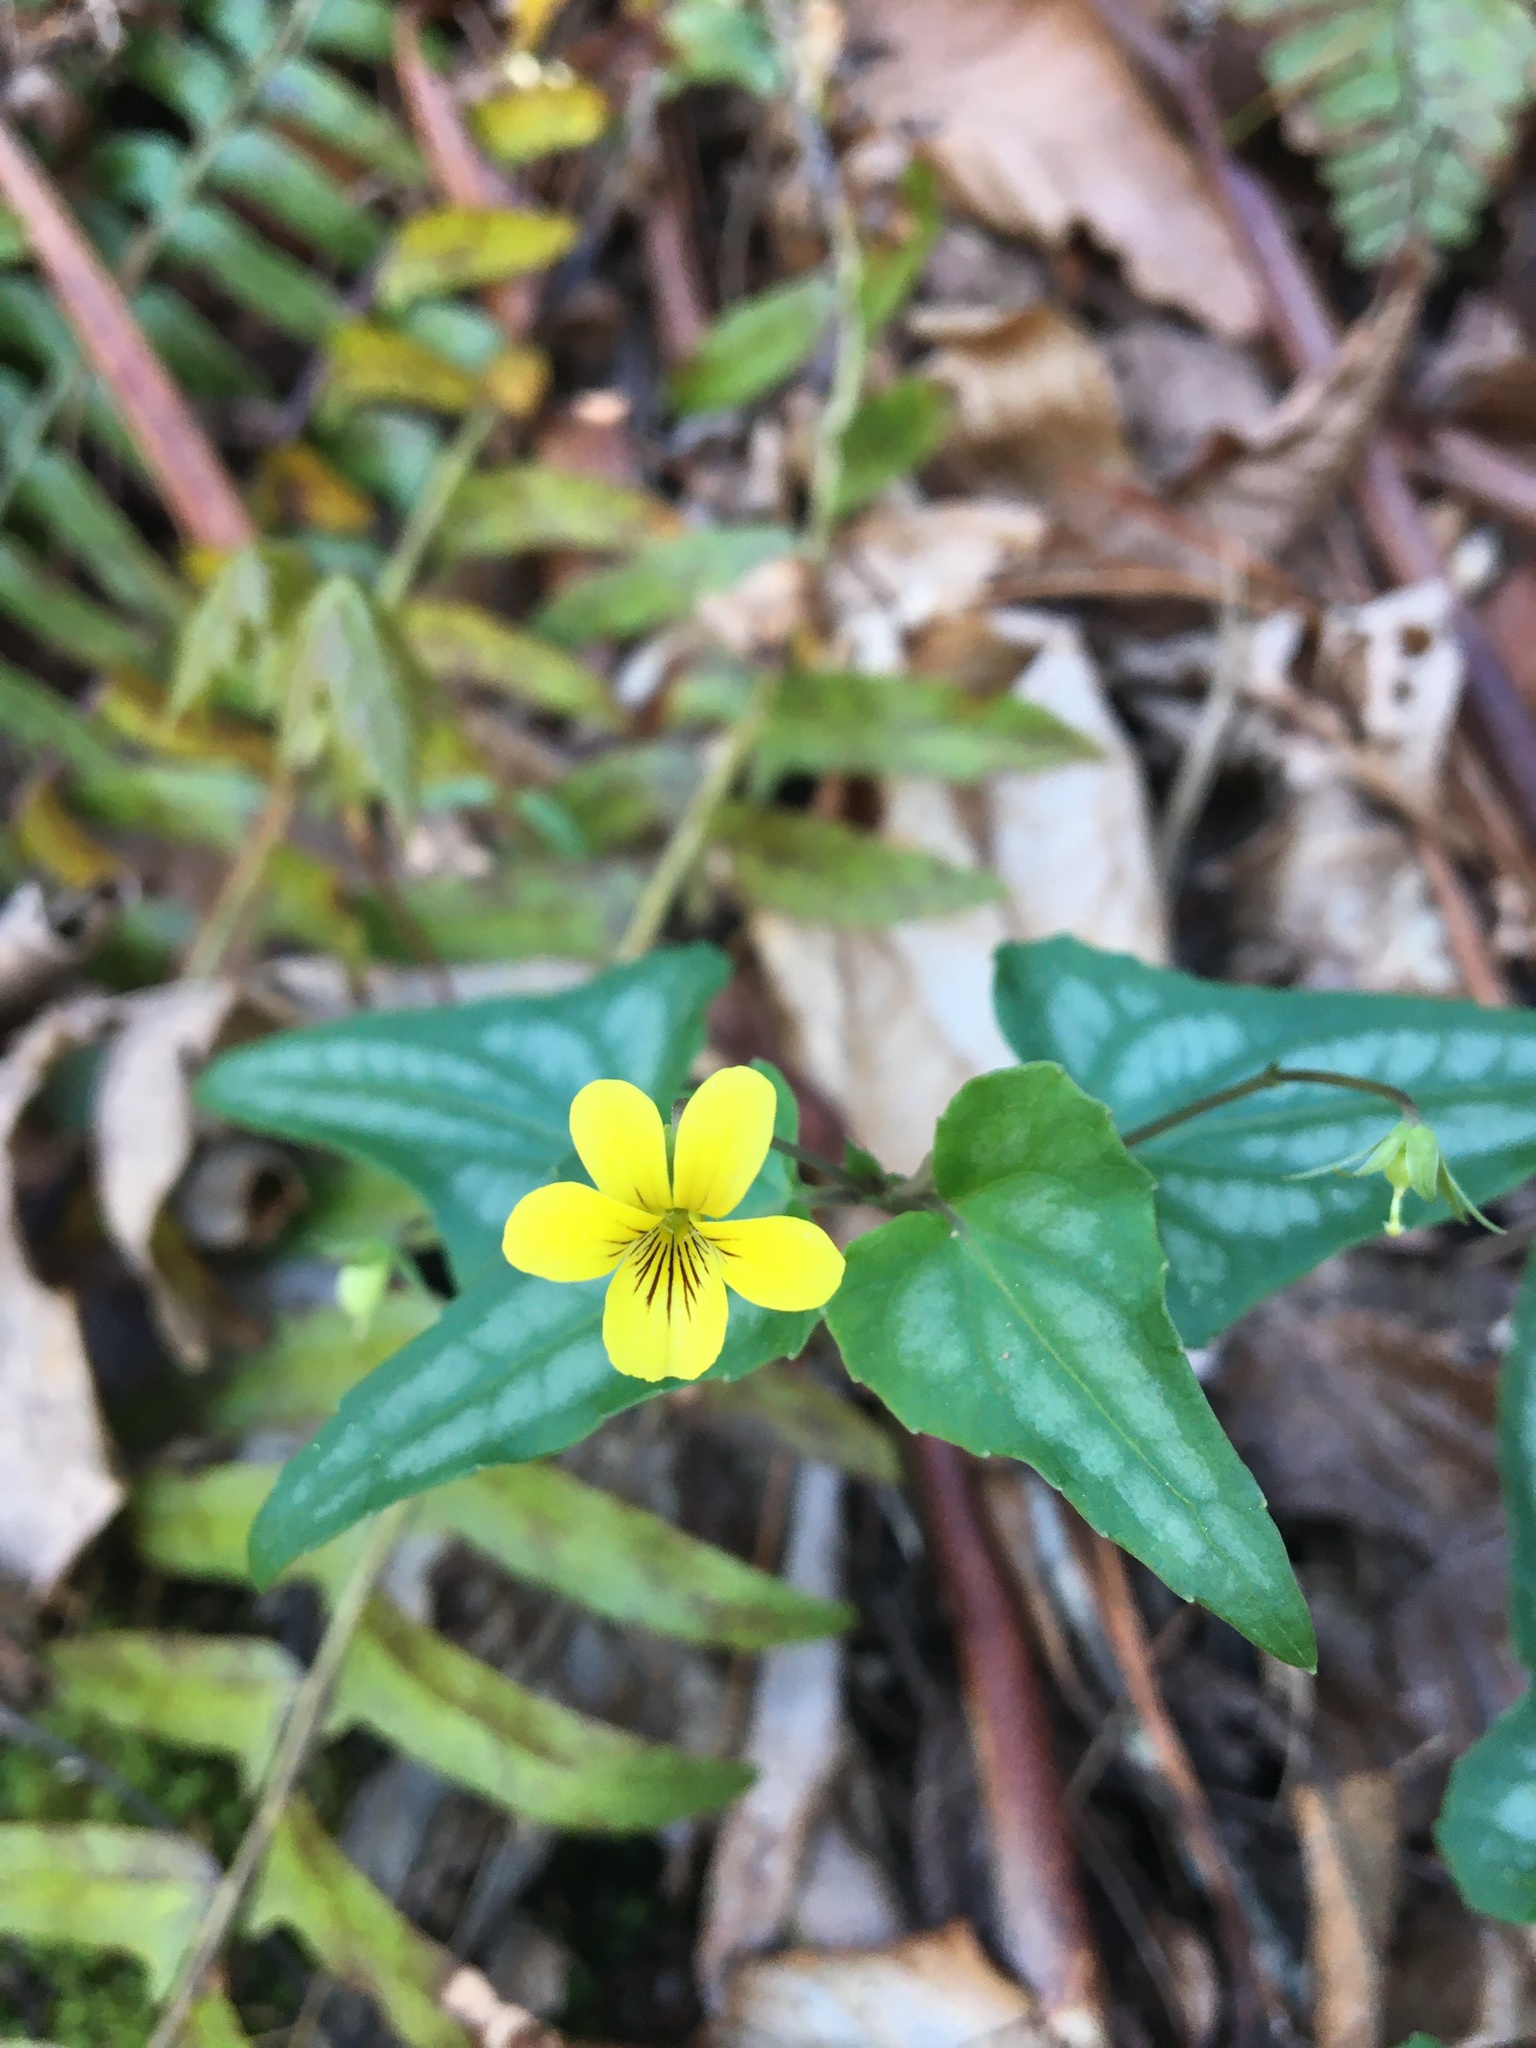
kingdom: Plantae
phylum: Tracheophyta
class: Magnoliopsida
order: Malpighiales
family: Violaceae
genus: Viola
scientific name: Viola hastata
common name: Spear-leaf violet
